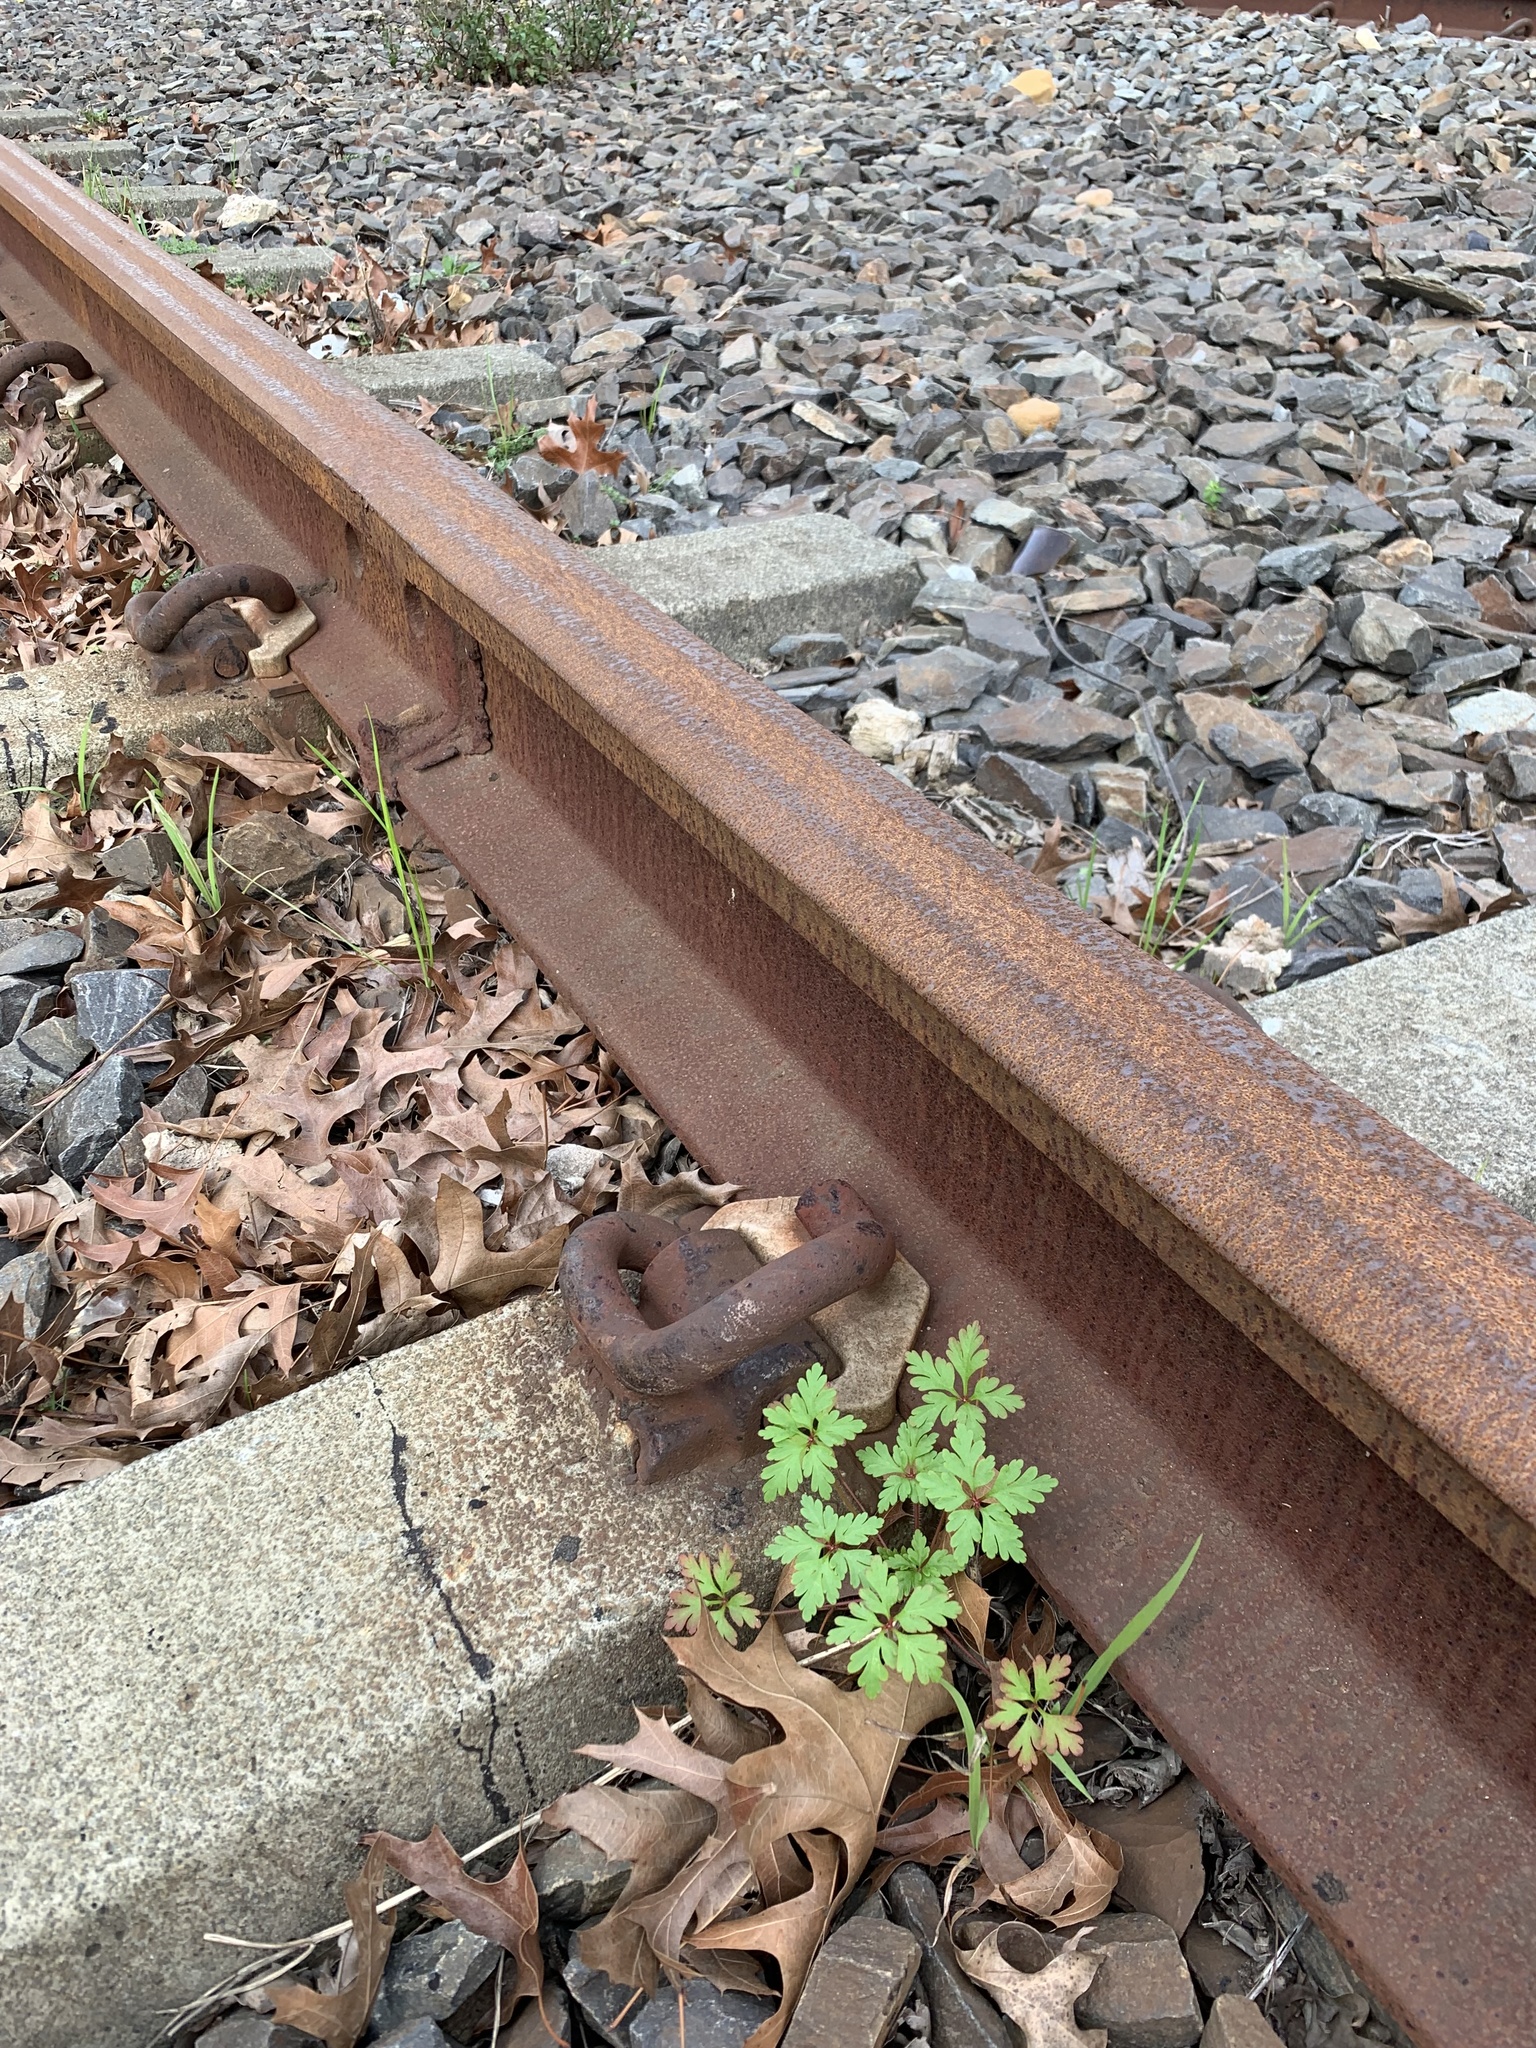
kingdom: Plantae
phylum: Tracheophyta
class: Magnoliopsida
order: Geraniales
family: Geraniaceae
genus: Geranium
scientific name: Geranium purpureum
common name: Little-robin
